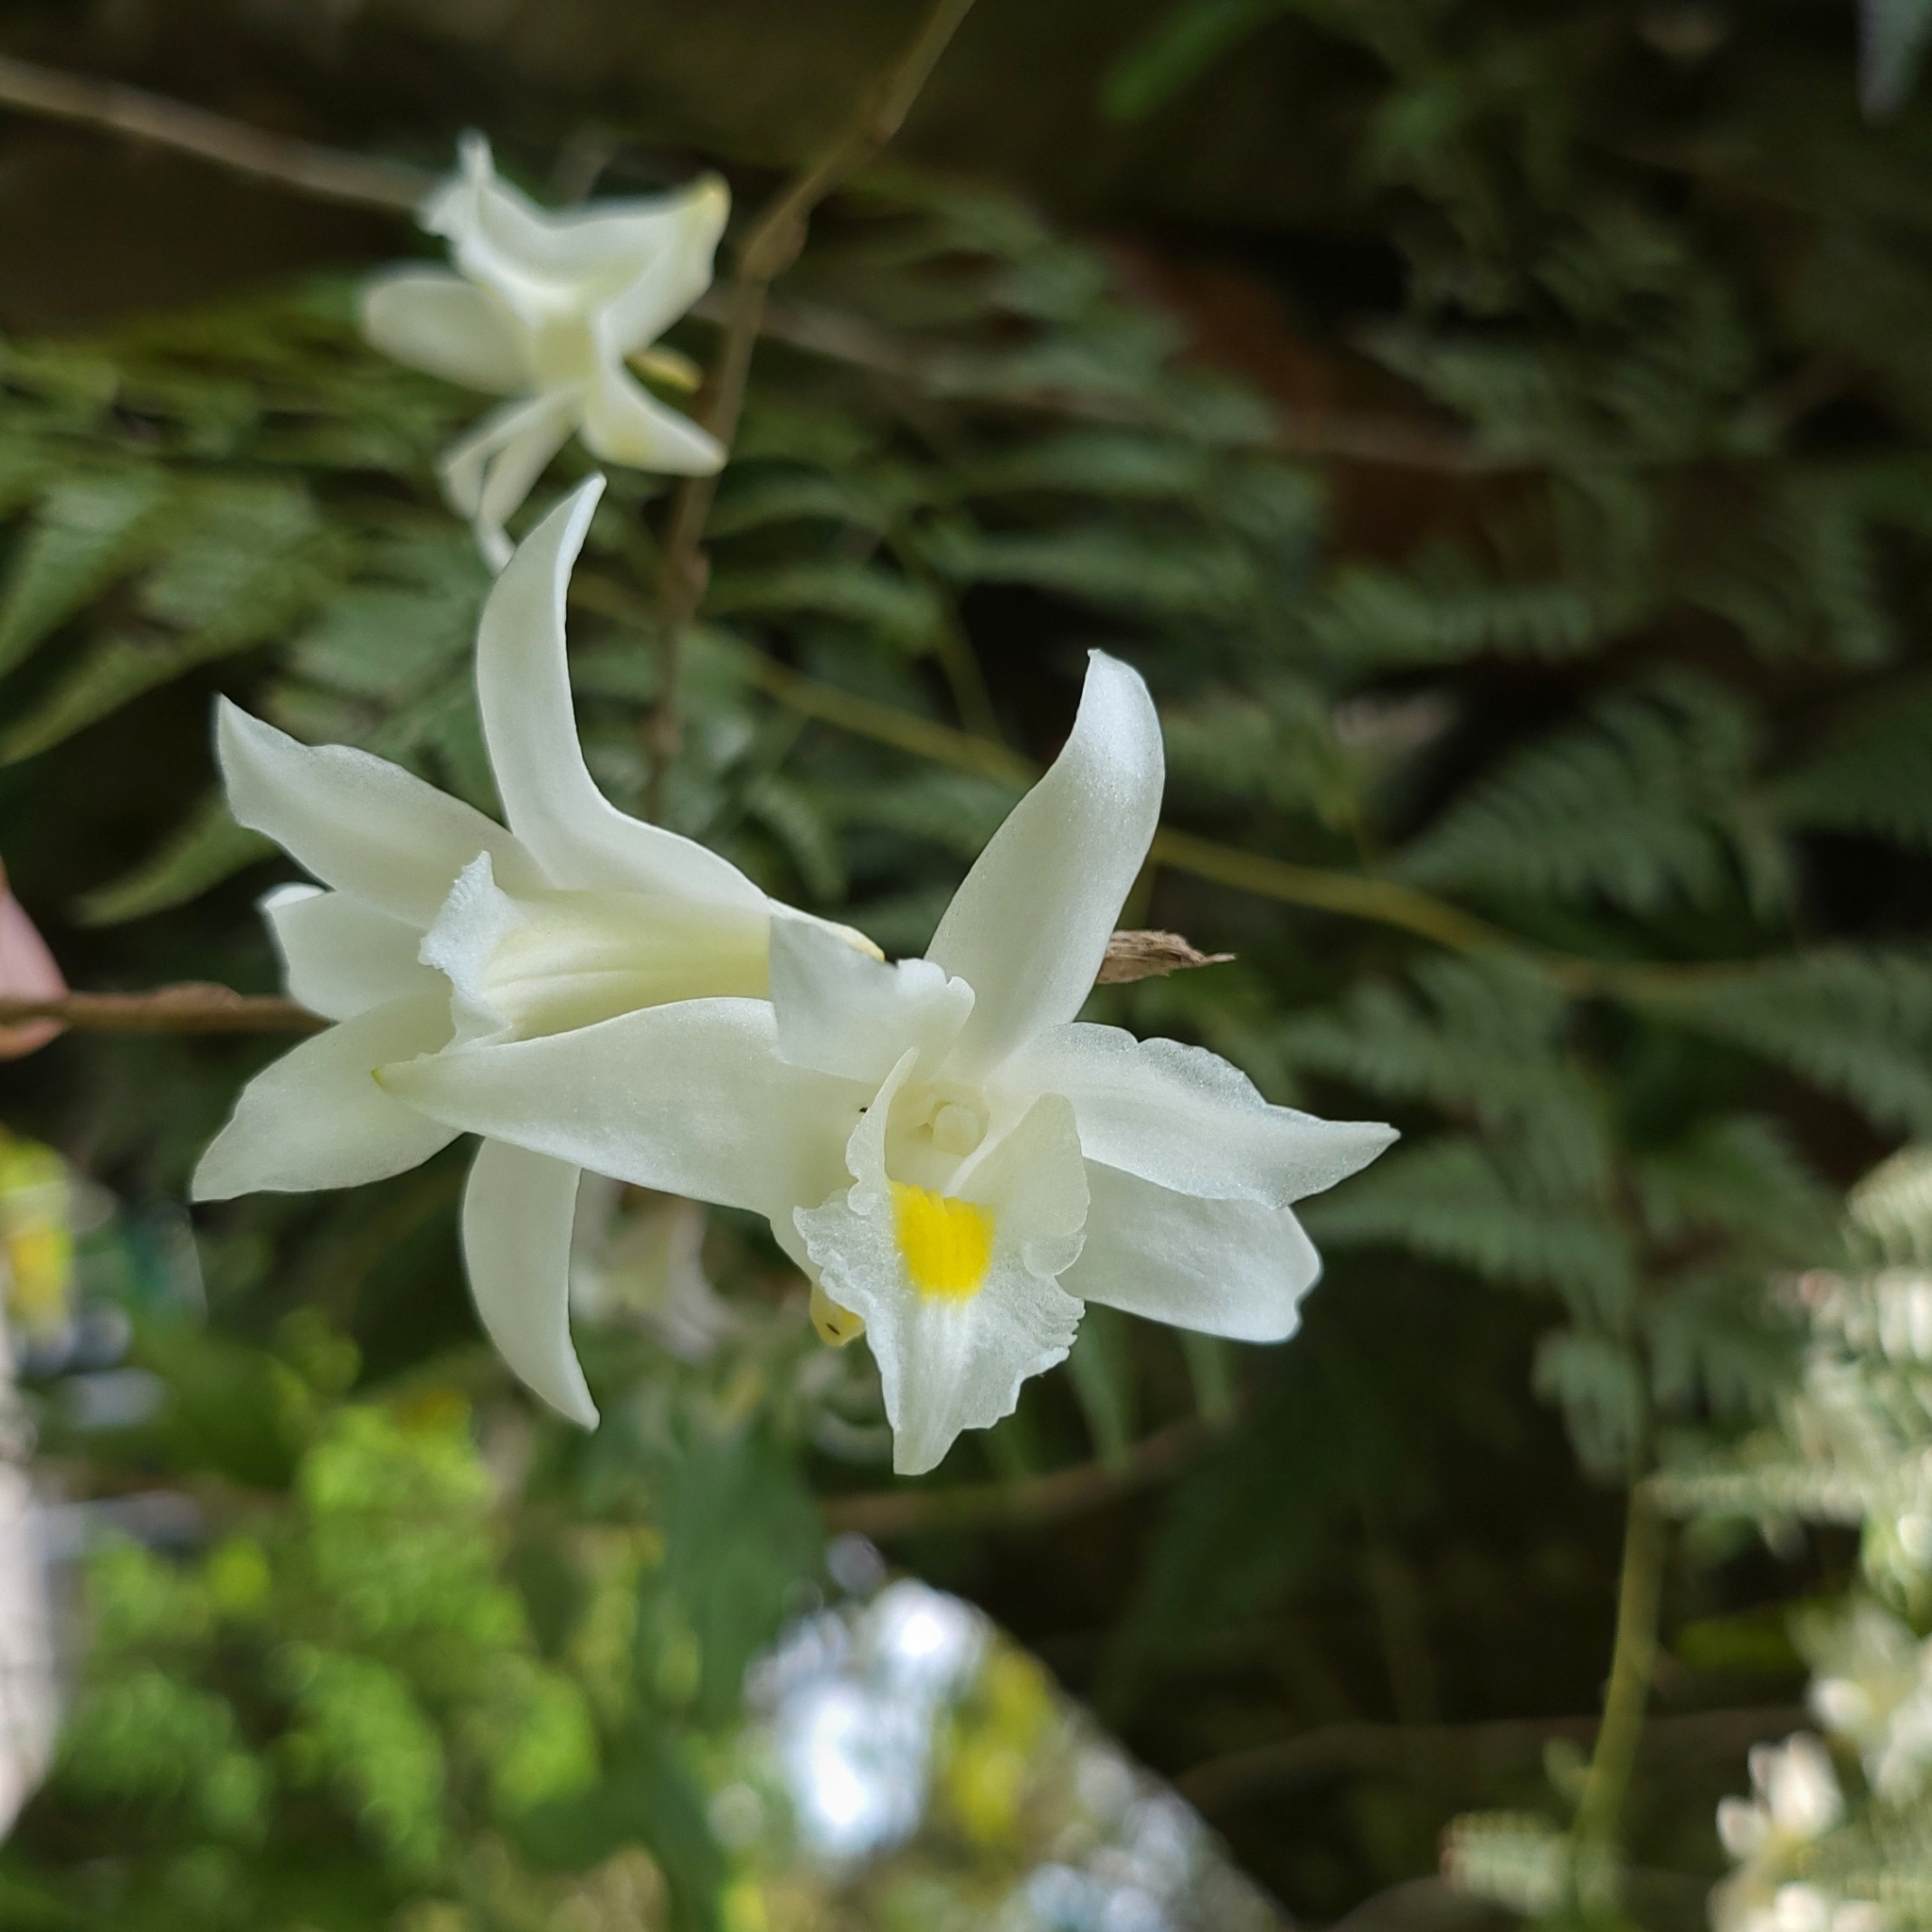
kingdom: Plantae
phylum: Tracheophyta
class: Liliopsida
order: Asparagales
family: Orchidaceae
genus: Dendrobium
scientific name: Dendrobium crumenatum
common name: Orchid
